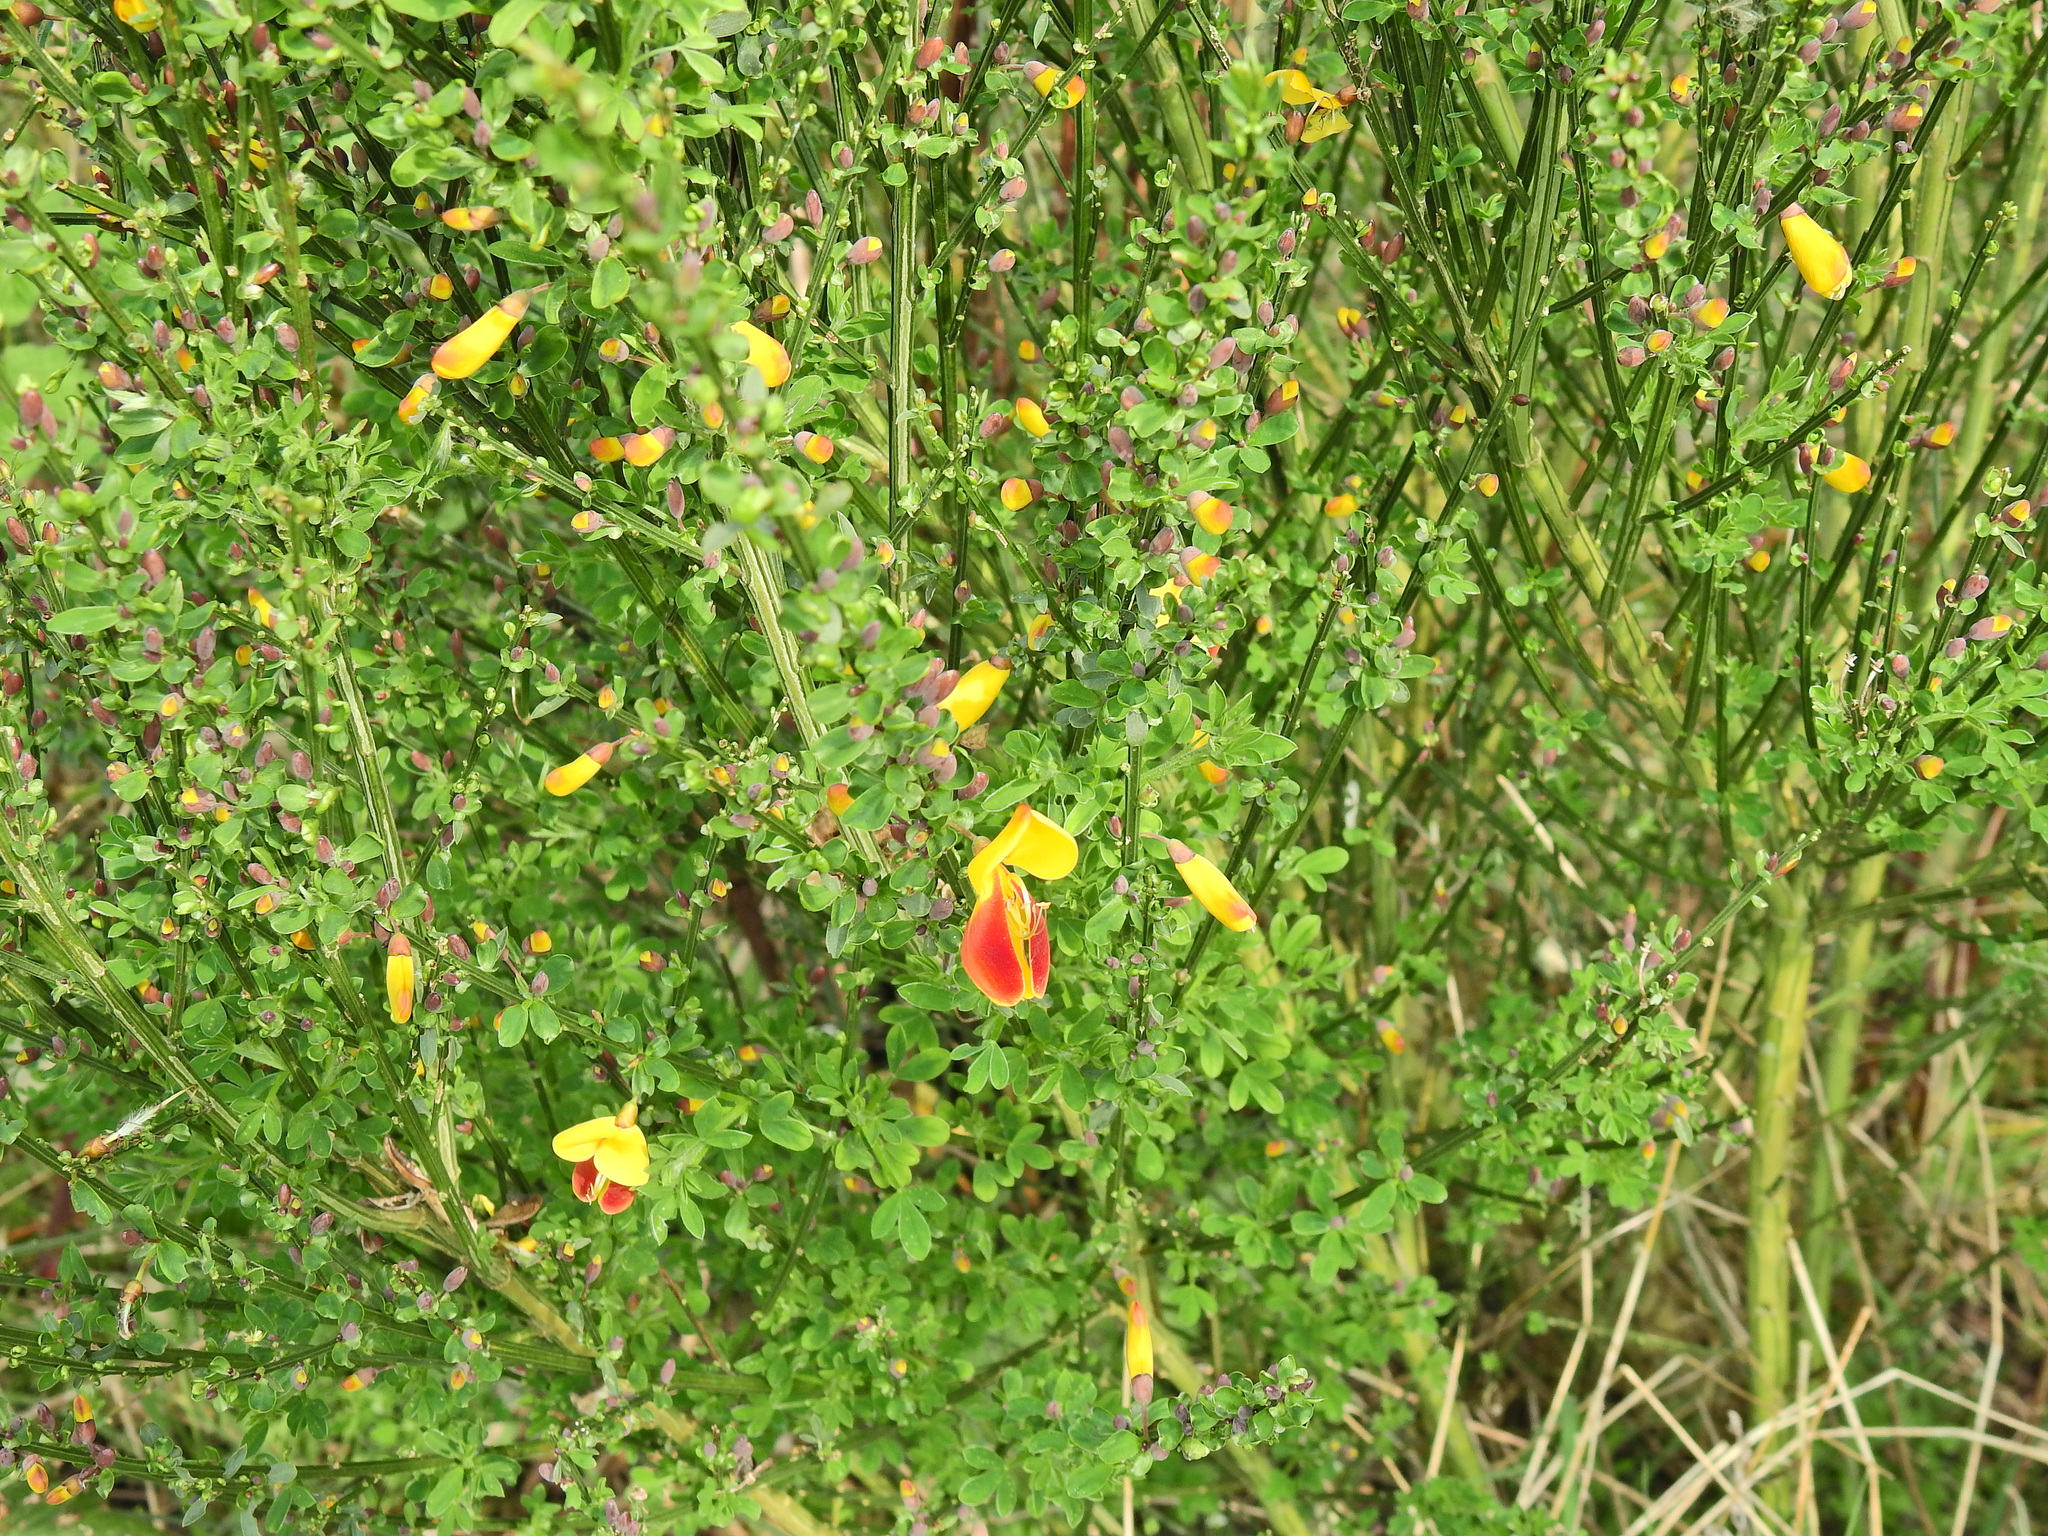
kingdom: Plantae
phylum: Tracheophyta
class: Magnoliopsida
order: Fabales
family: Fabaceae
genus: Cytisus
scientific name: Cytisus scoparius
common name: Scotch broom
